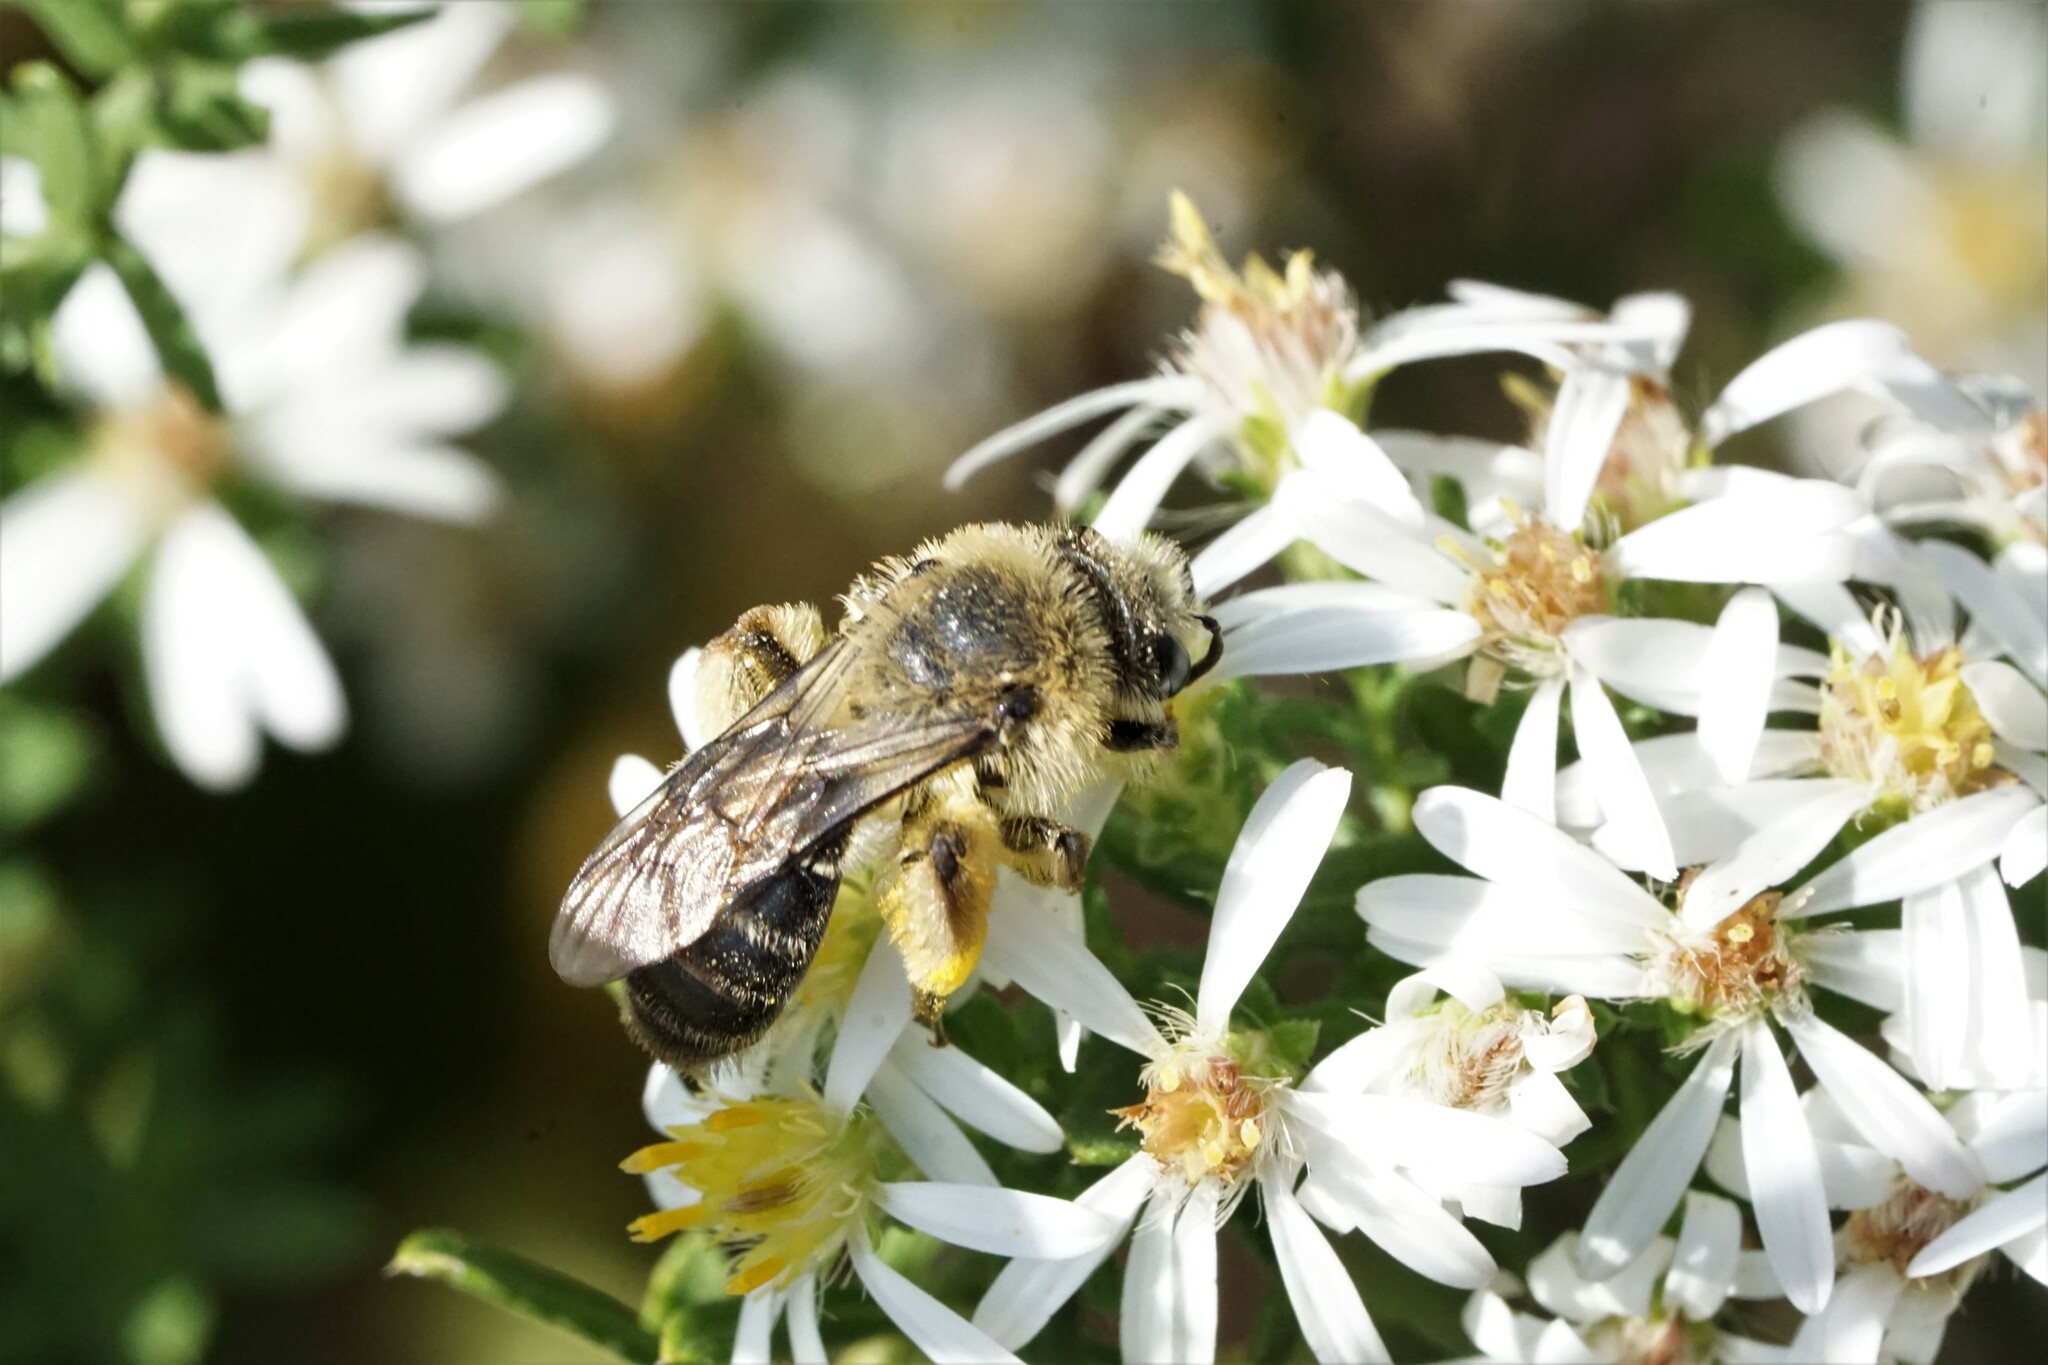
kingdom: Animalia
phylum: Arthropoda
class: Insecta
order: Hymenoptera
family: Andrenidae
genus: Andrena
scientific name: Andrena asteris
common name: Aster mining bee
